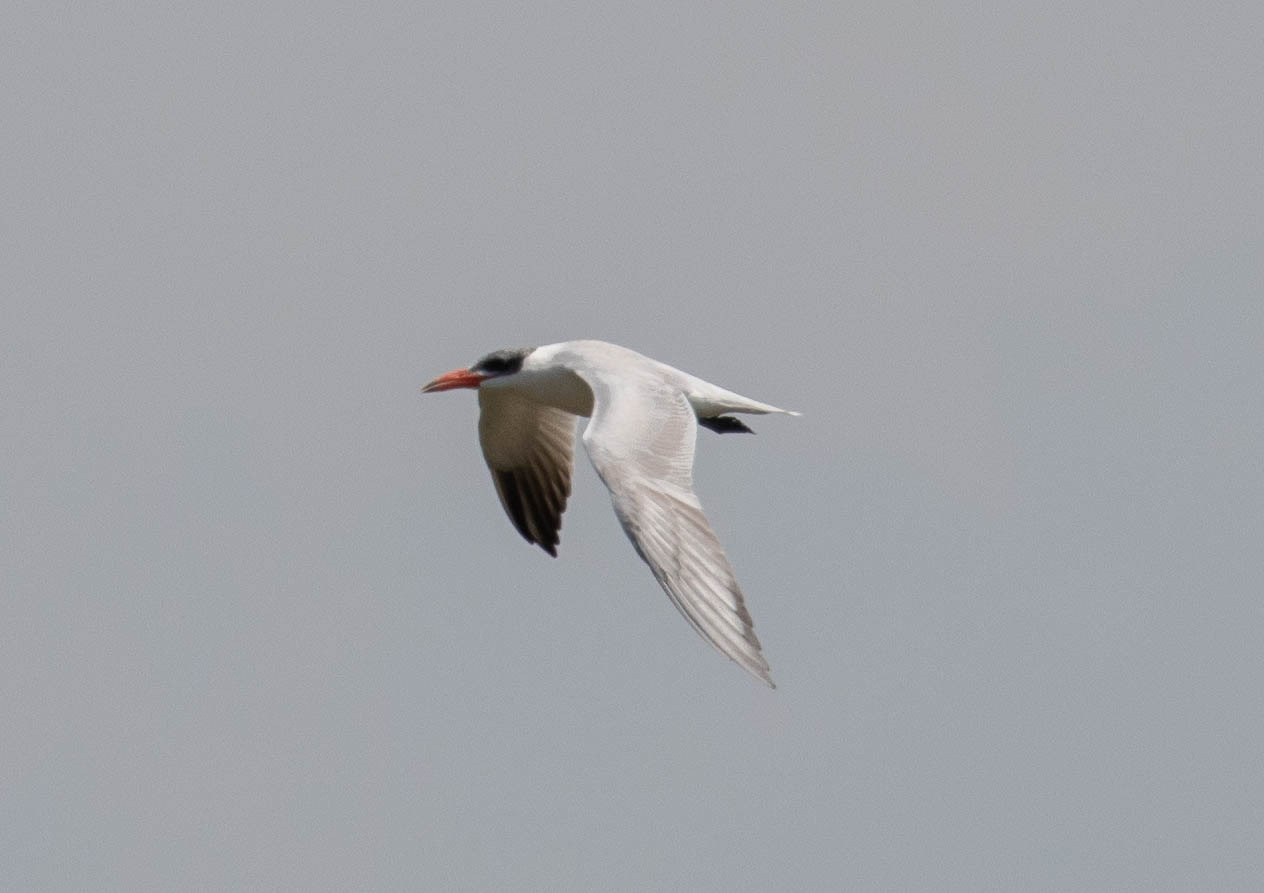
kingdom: Animalia
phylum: Chordata
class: Aves
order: Charadriiformes
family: Laridae
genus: Hydroprogne
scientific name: Hydroprogne caspia
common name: Caspian tern
